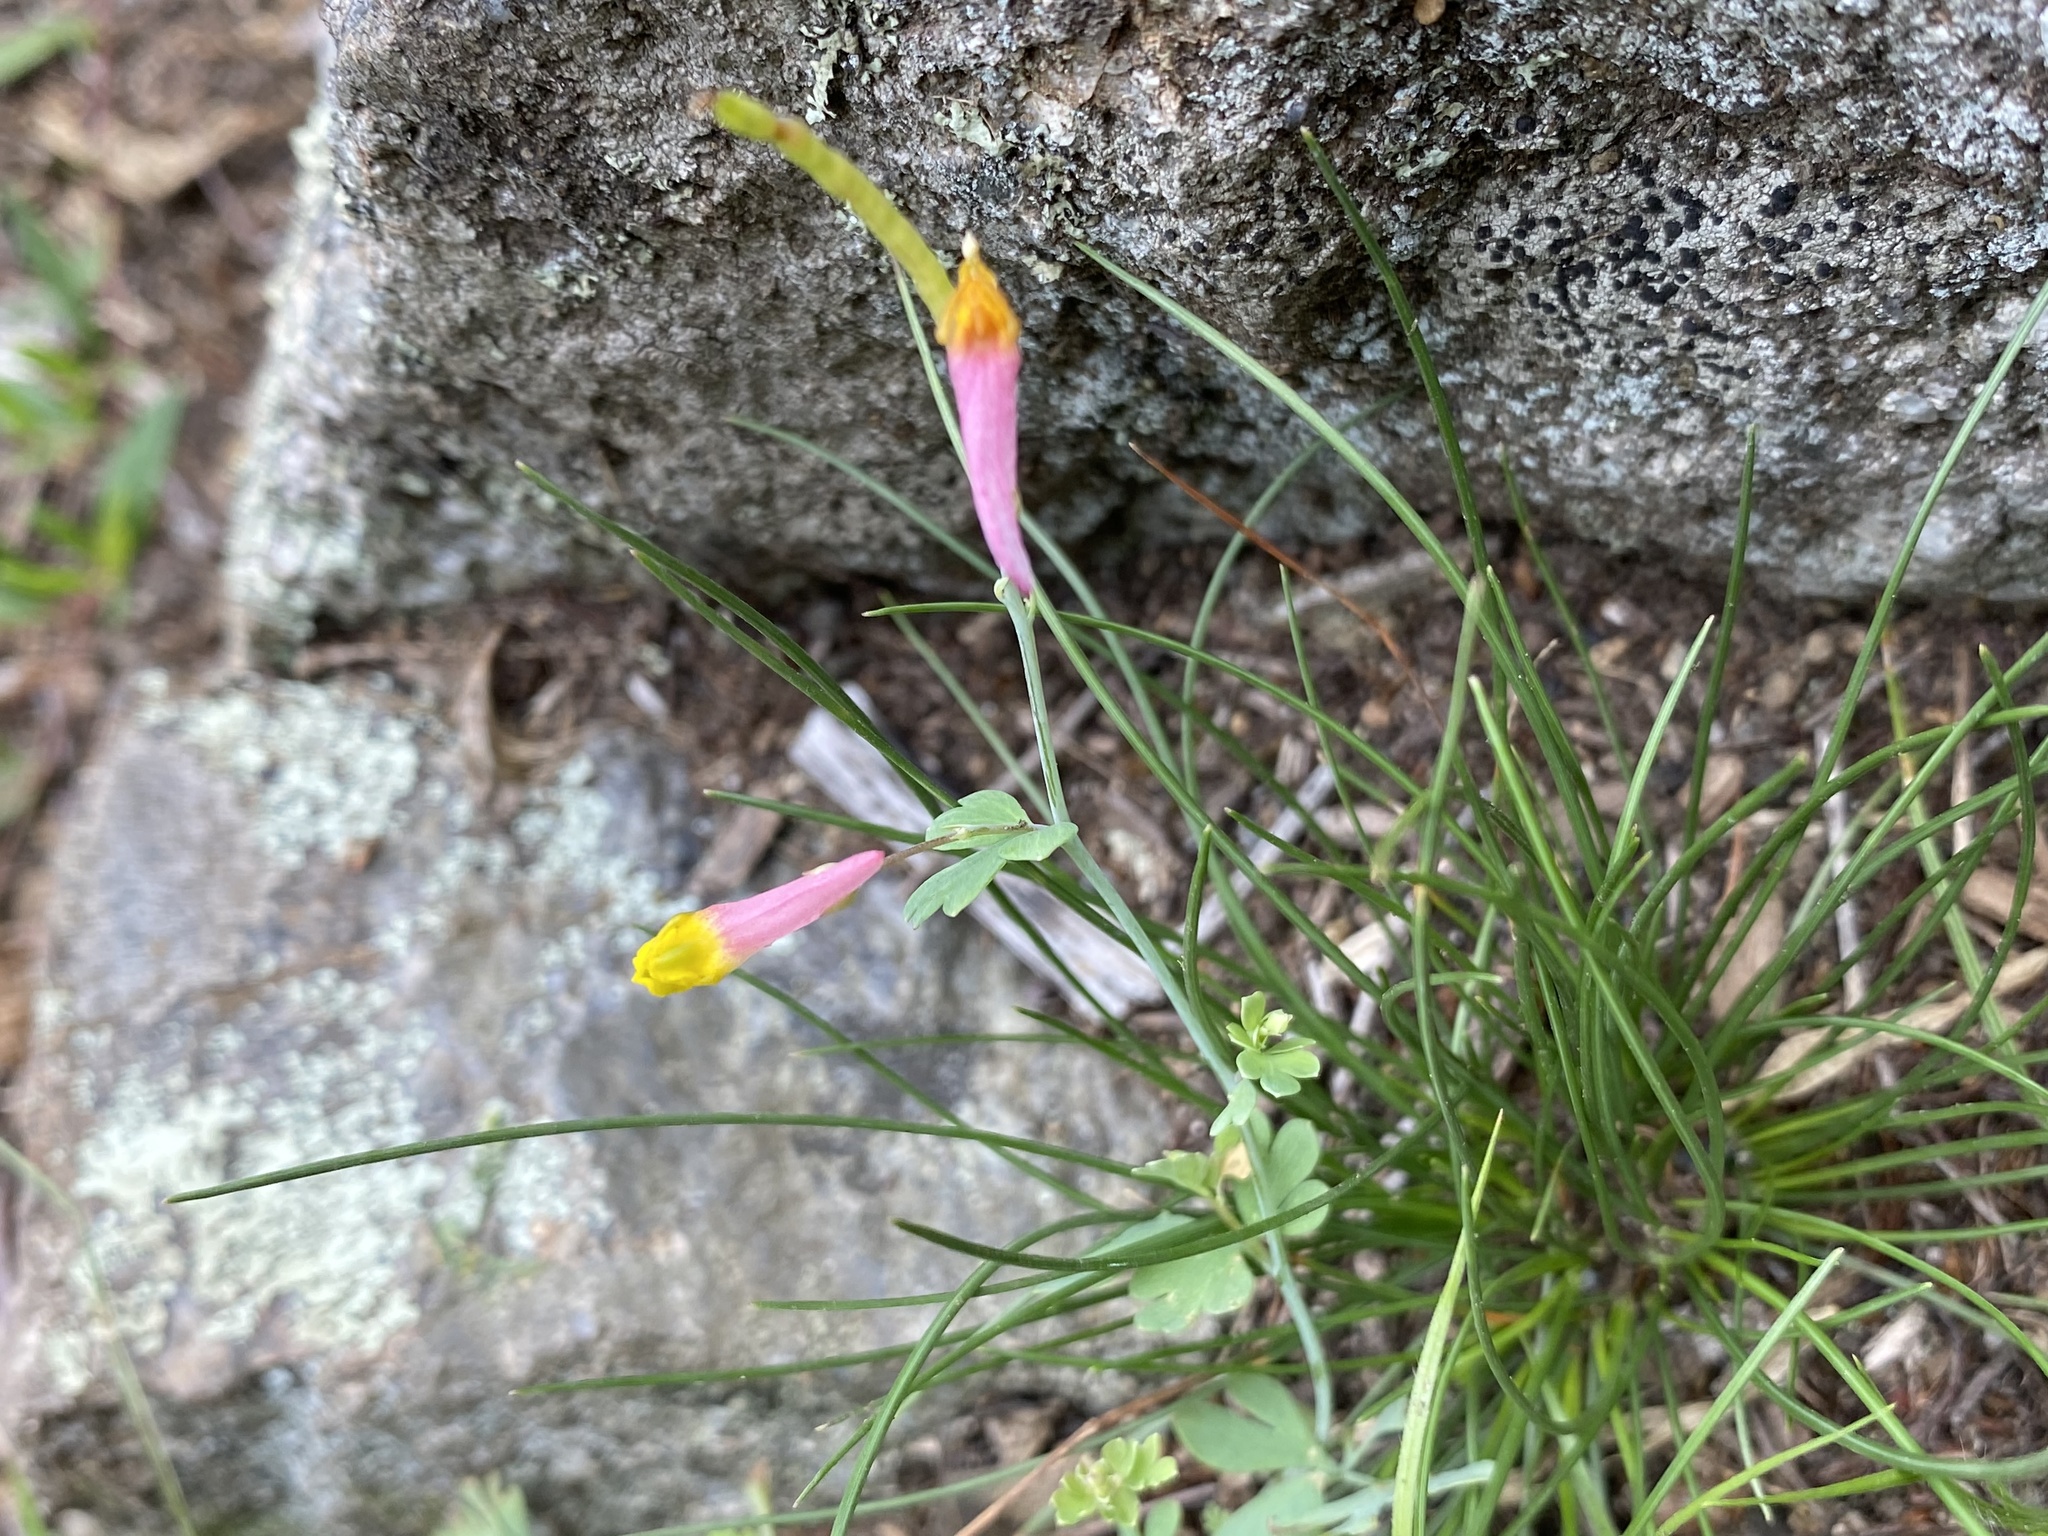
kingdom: Plantae
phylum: Tracheophyta
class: Magnoliopsida
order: Ranunculales
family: Papaveraceae
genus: Capnoides
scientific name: Capnoides sempervirens
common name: Rock harlequin
